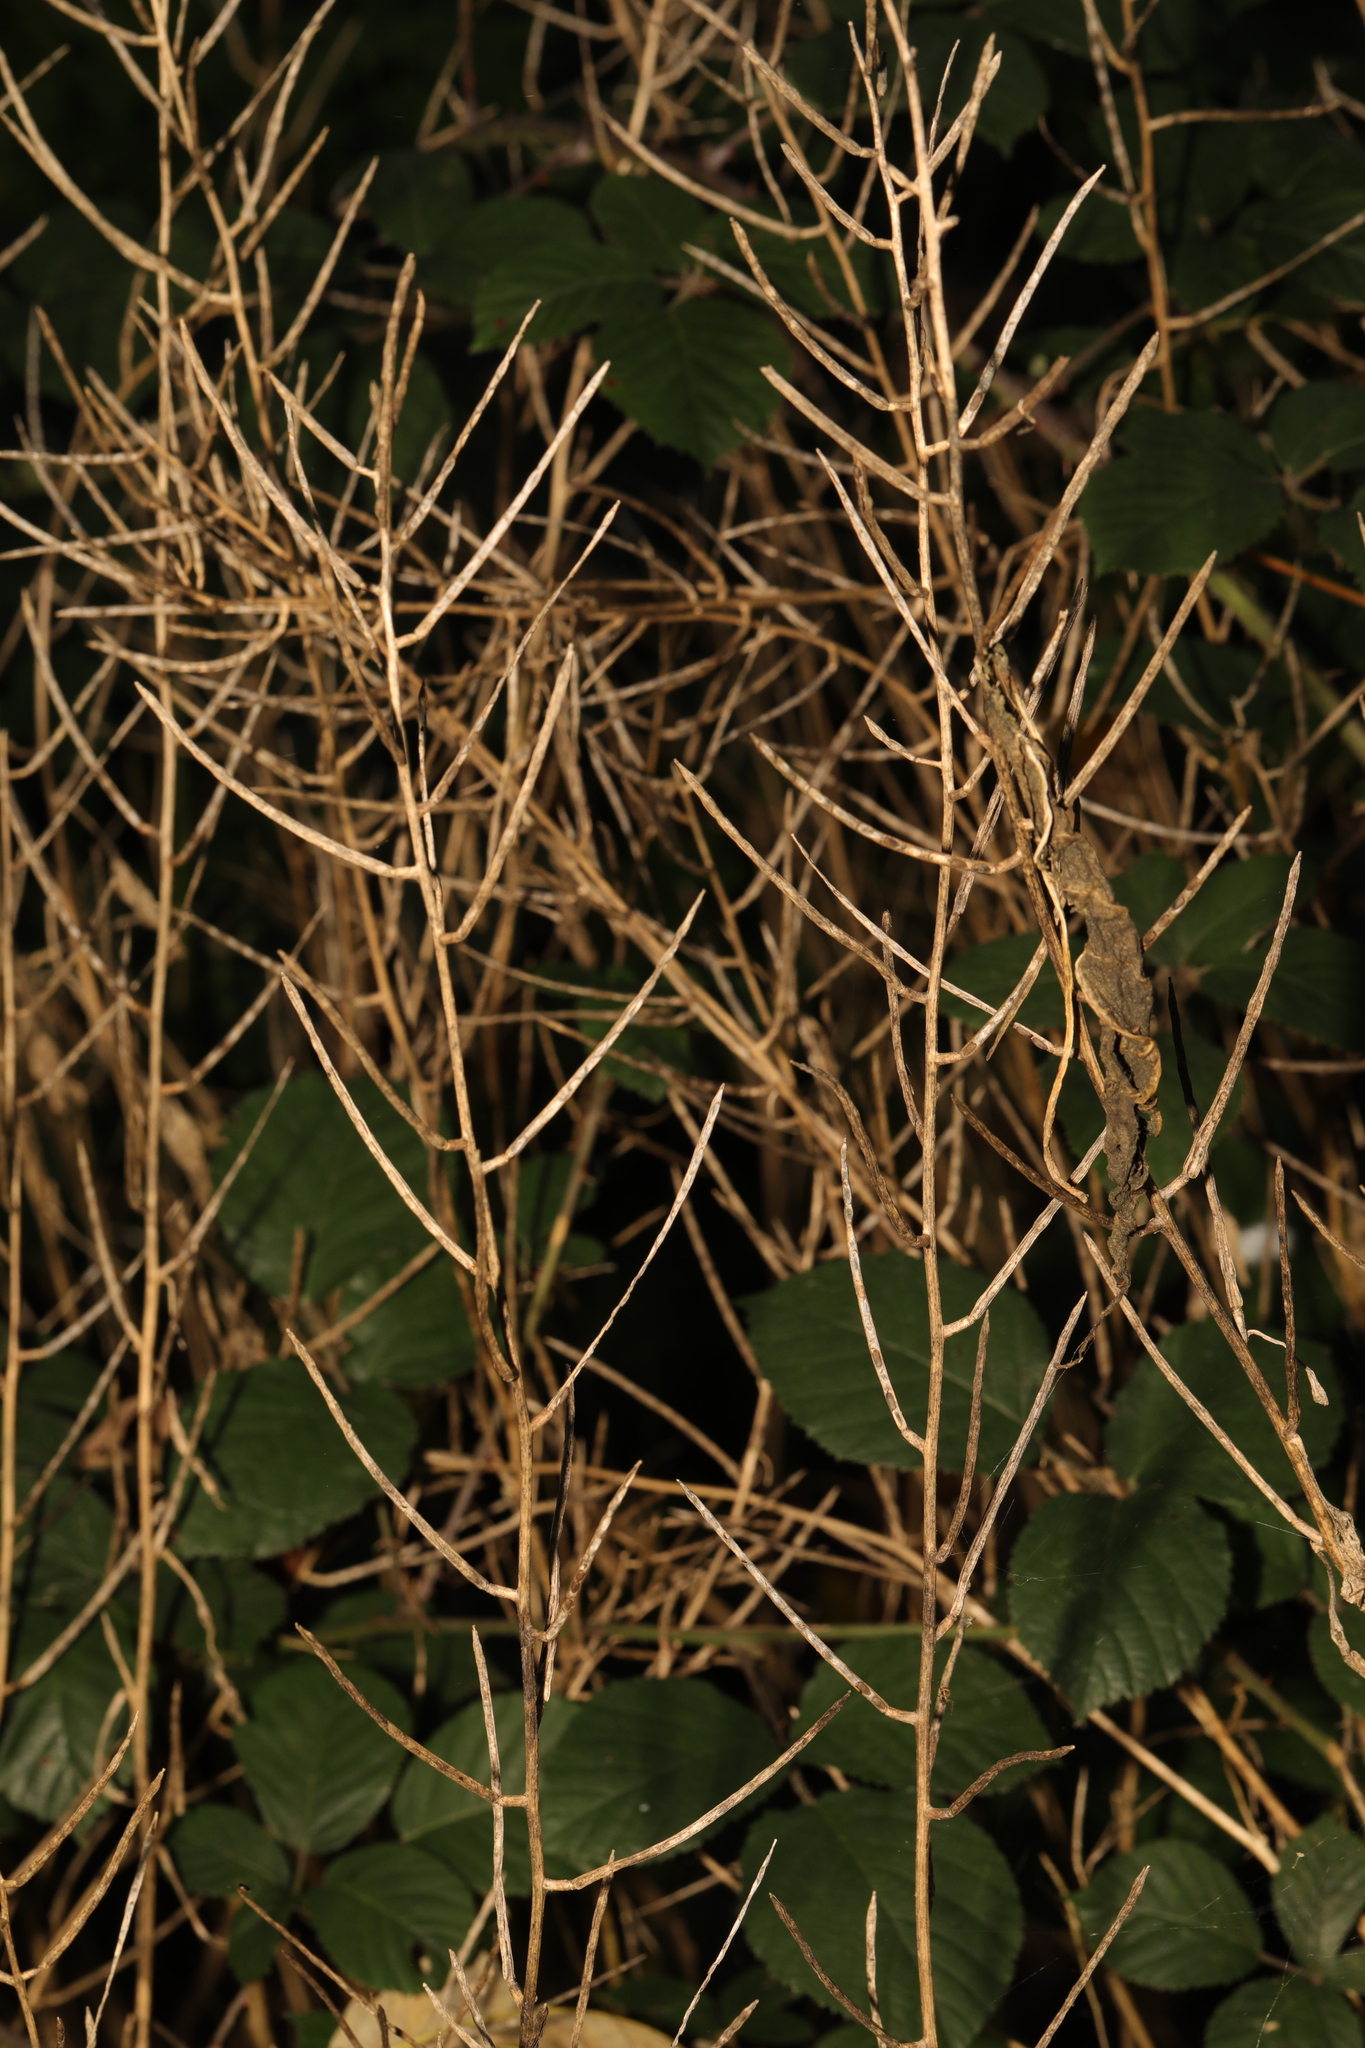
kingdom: Plantae
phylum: Tracheophyta
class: Magnoliopsida
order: Brassicales
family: Brassicaceae
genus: Alliaria
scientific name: Alliaria petiolata
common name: Garlic mustard
